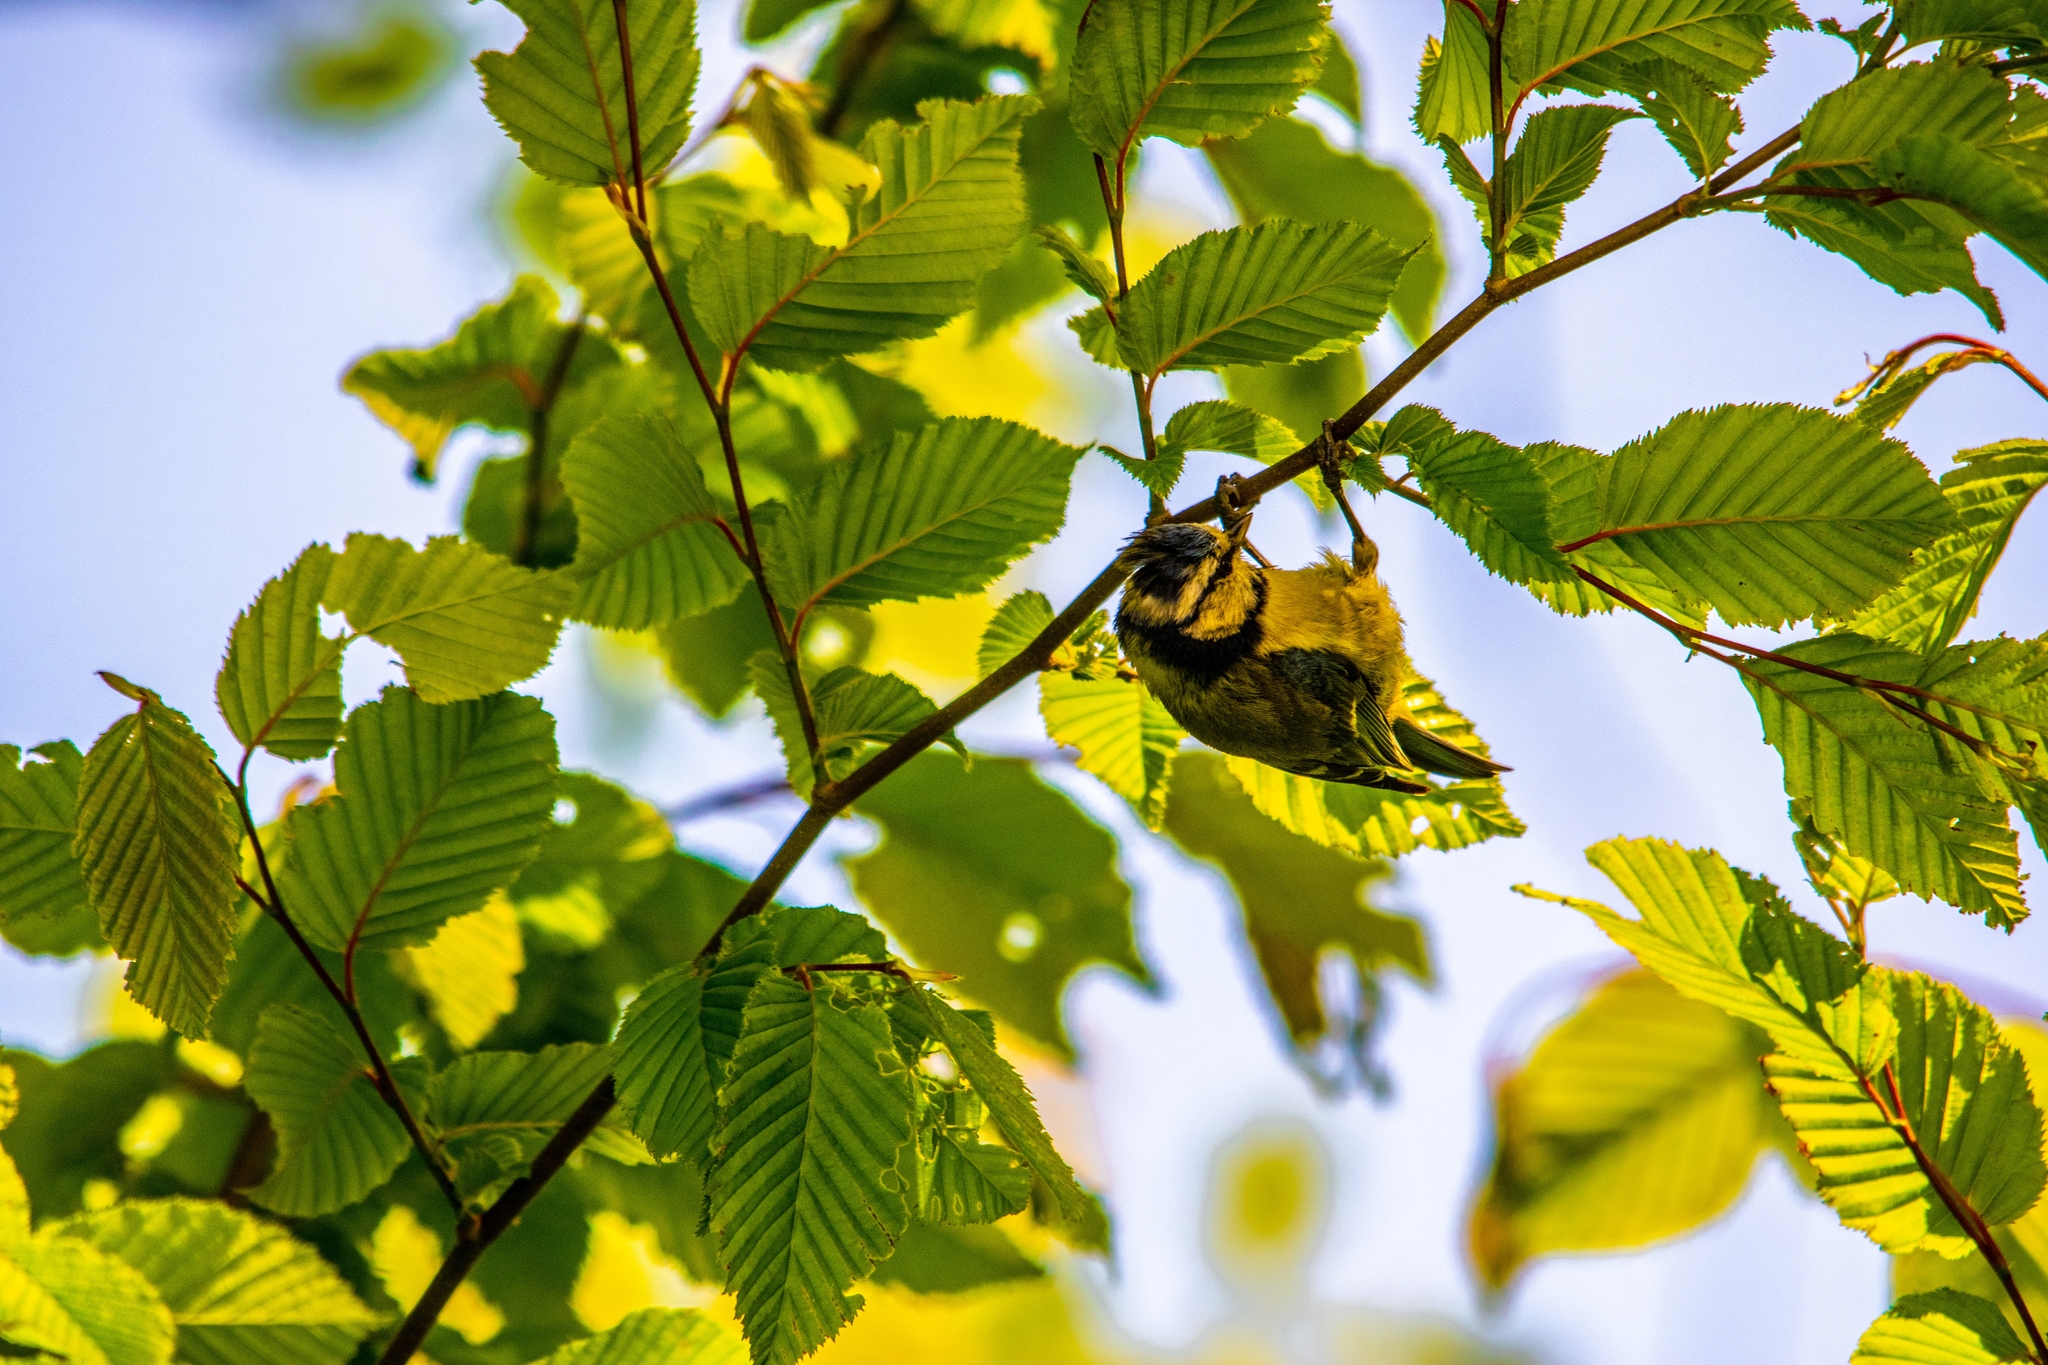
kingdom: Animalia
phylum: Chordata
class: Aves
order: Passeriformes
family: Paridae
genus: Cyanistes
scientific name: Cyanistes caeruleus
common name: Eurasian blue tit
